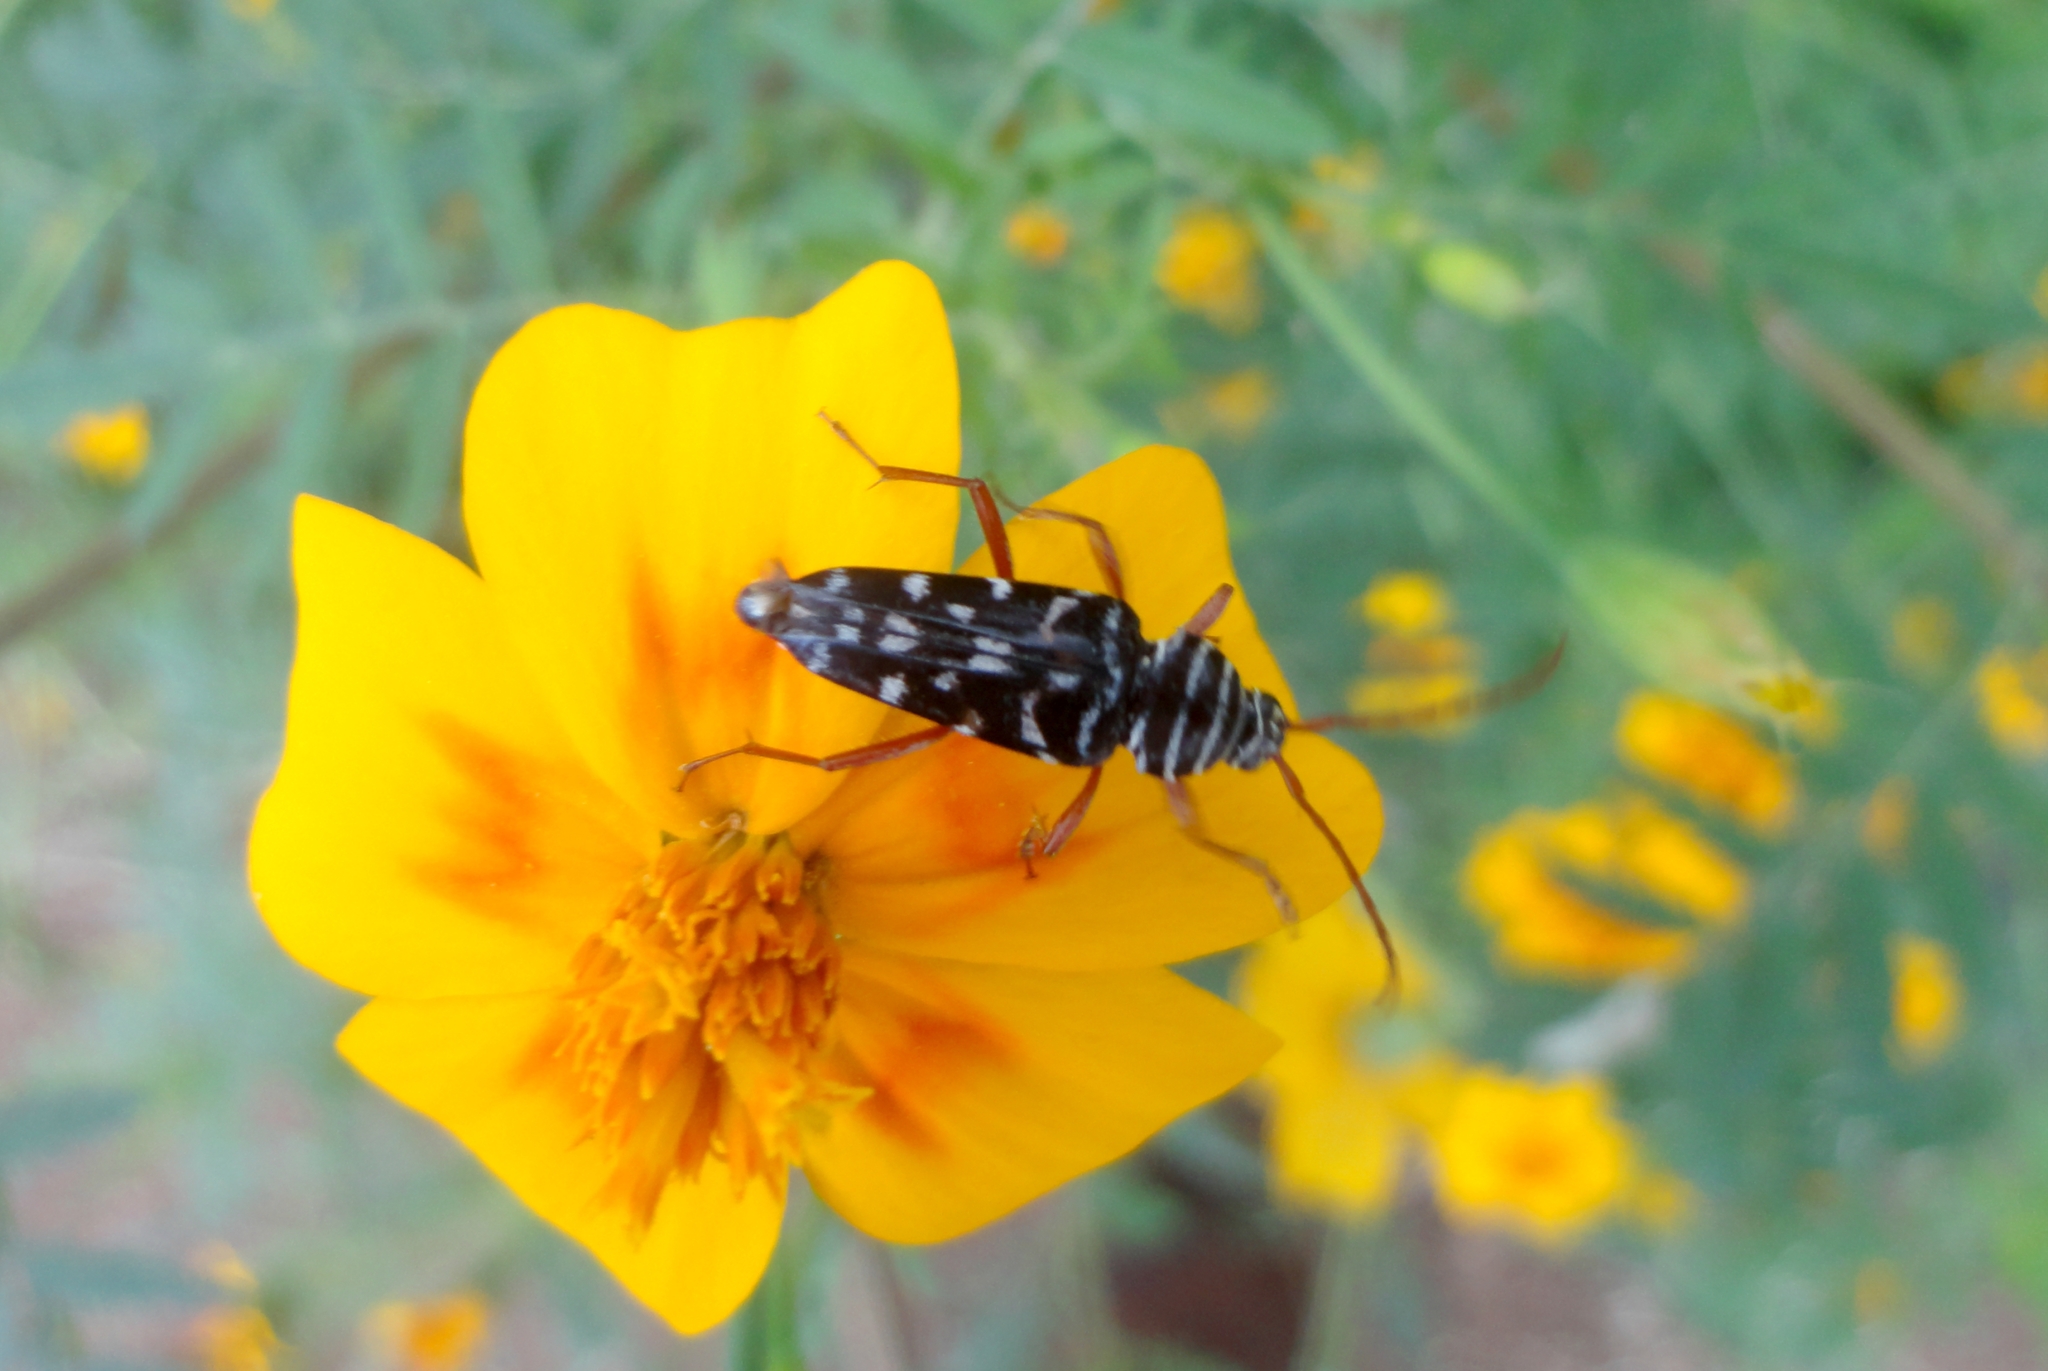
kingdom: Animalia
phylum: Arthropoda
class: Insecta
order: Coleoptera
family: Cerambycidae
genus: Placosternus
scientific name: Placosternus difficilis
